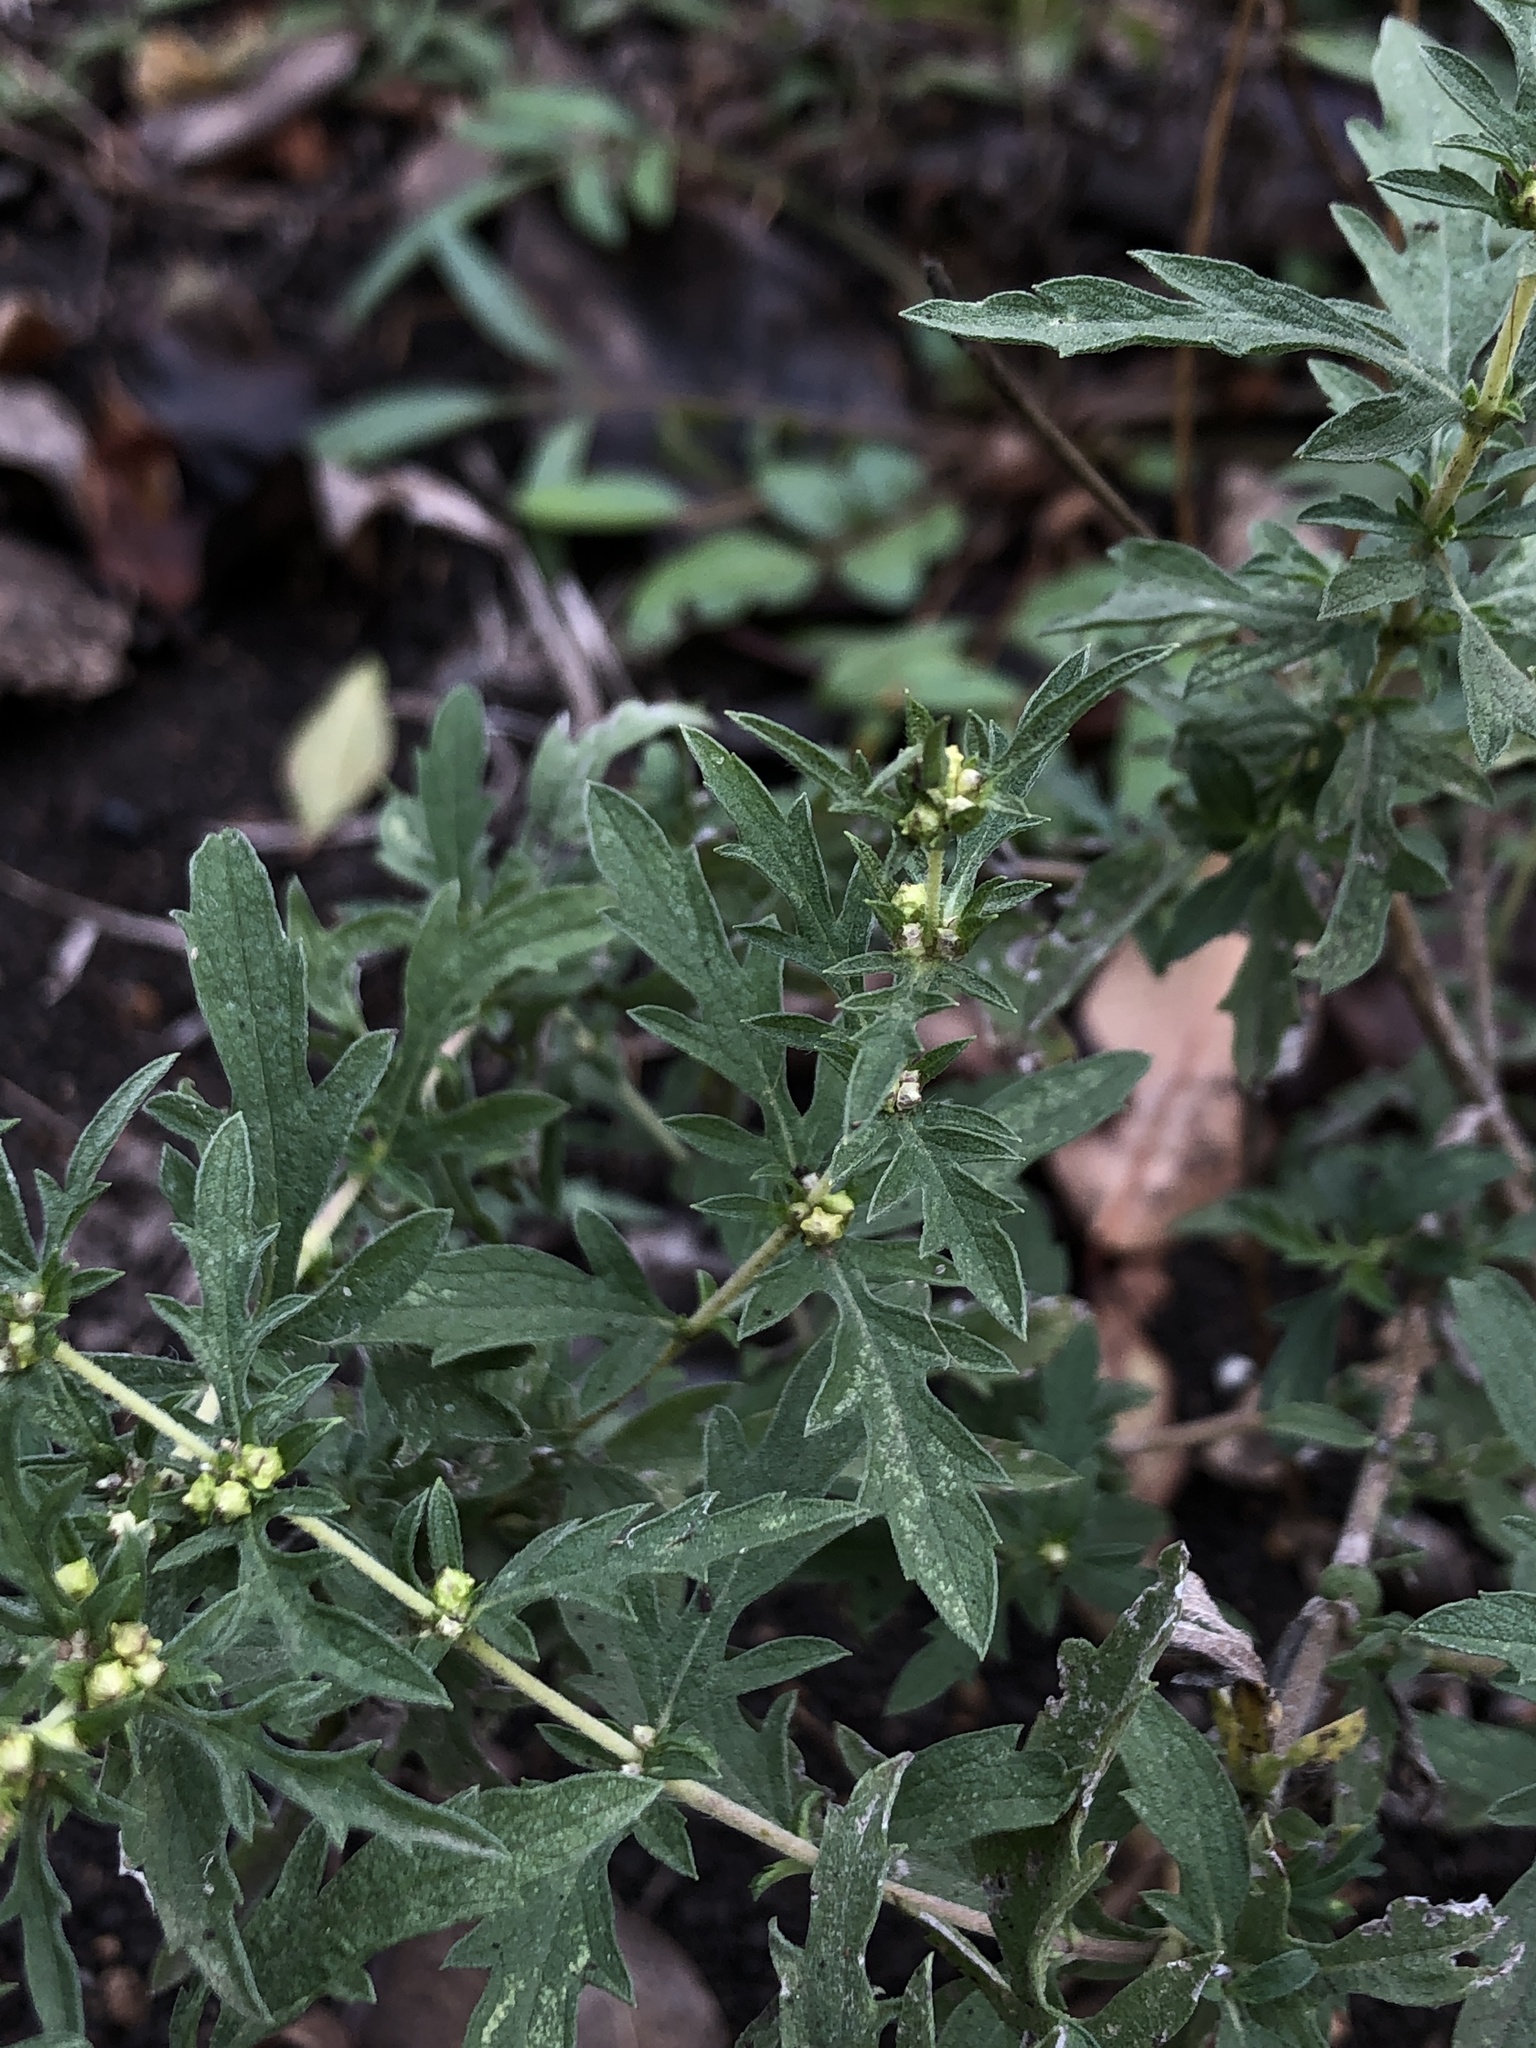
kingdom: Plantae
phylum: Tracheophyta
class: Magnoliopsida
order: Asterales
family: Asteraceae
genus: Ambrosia
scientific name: Ambrosia psilostachya
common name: Perennial ragweed
